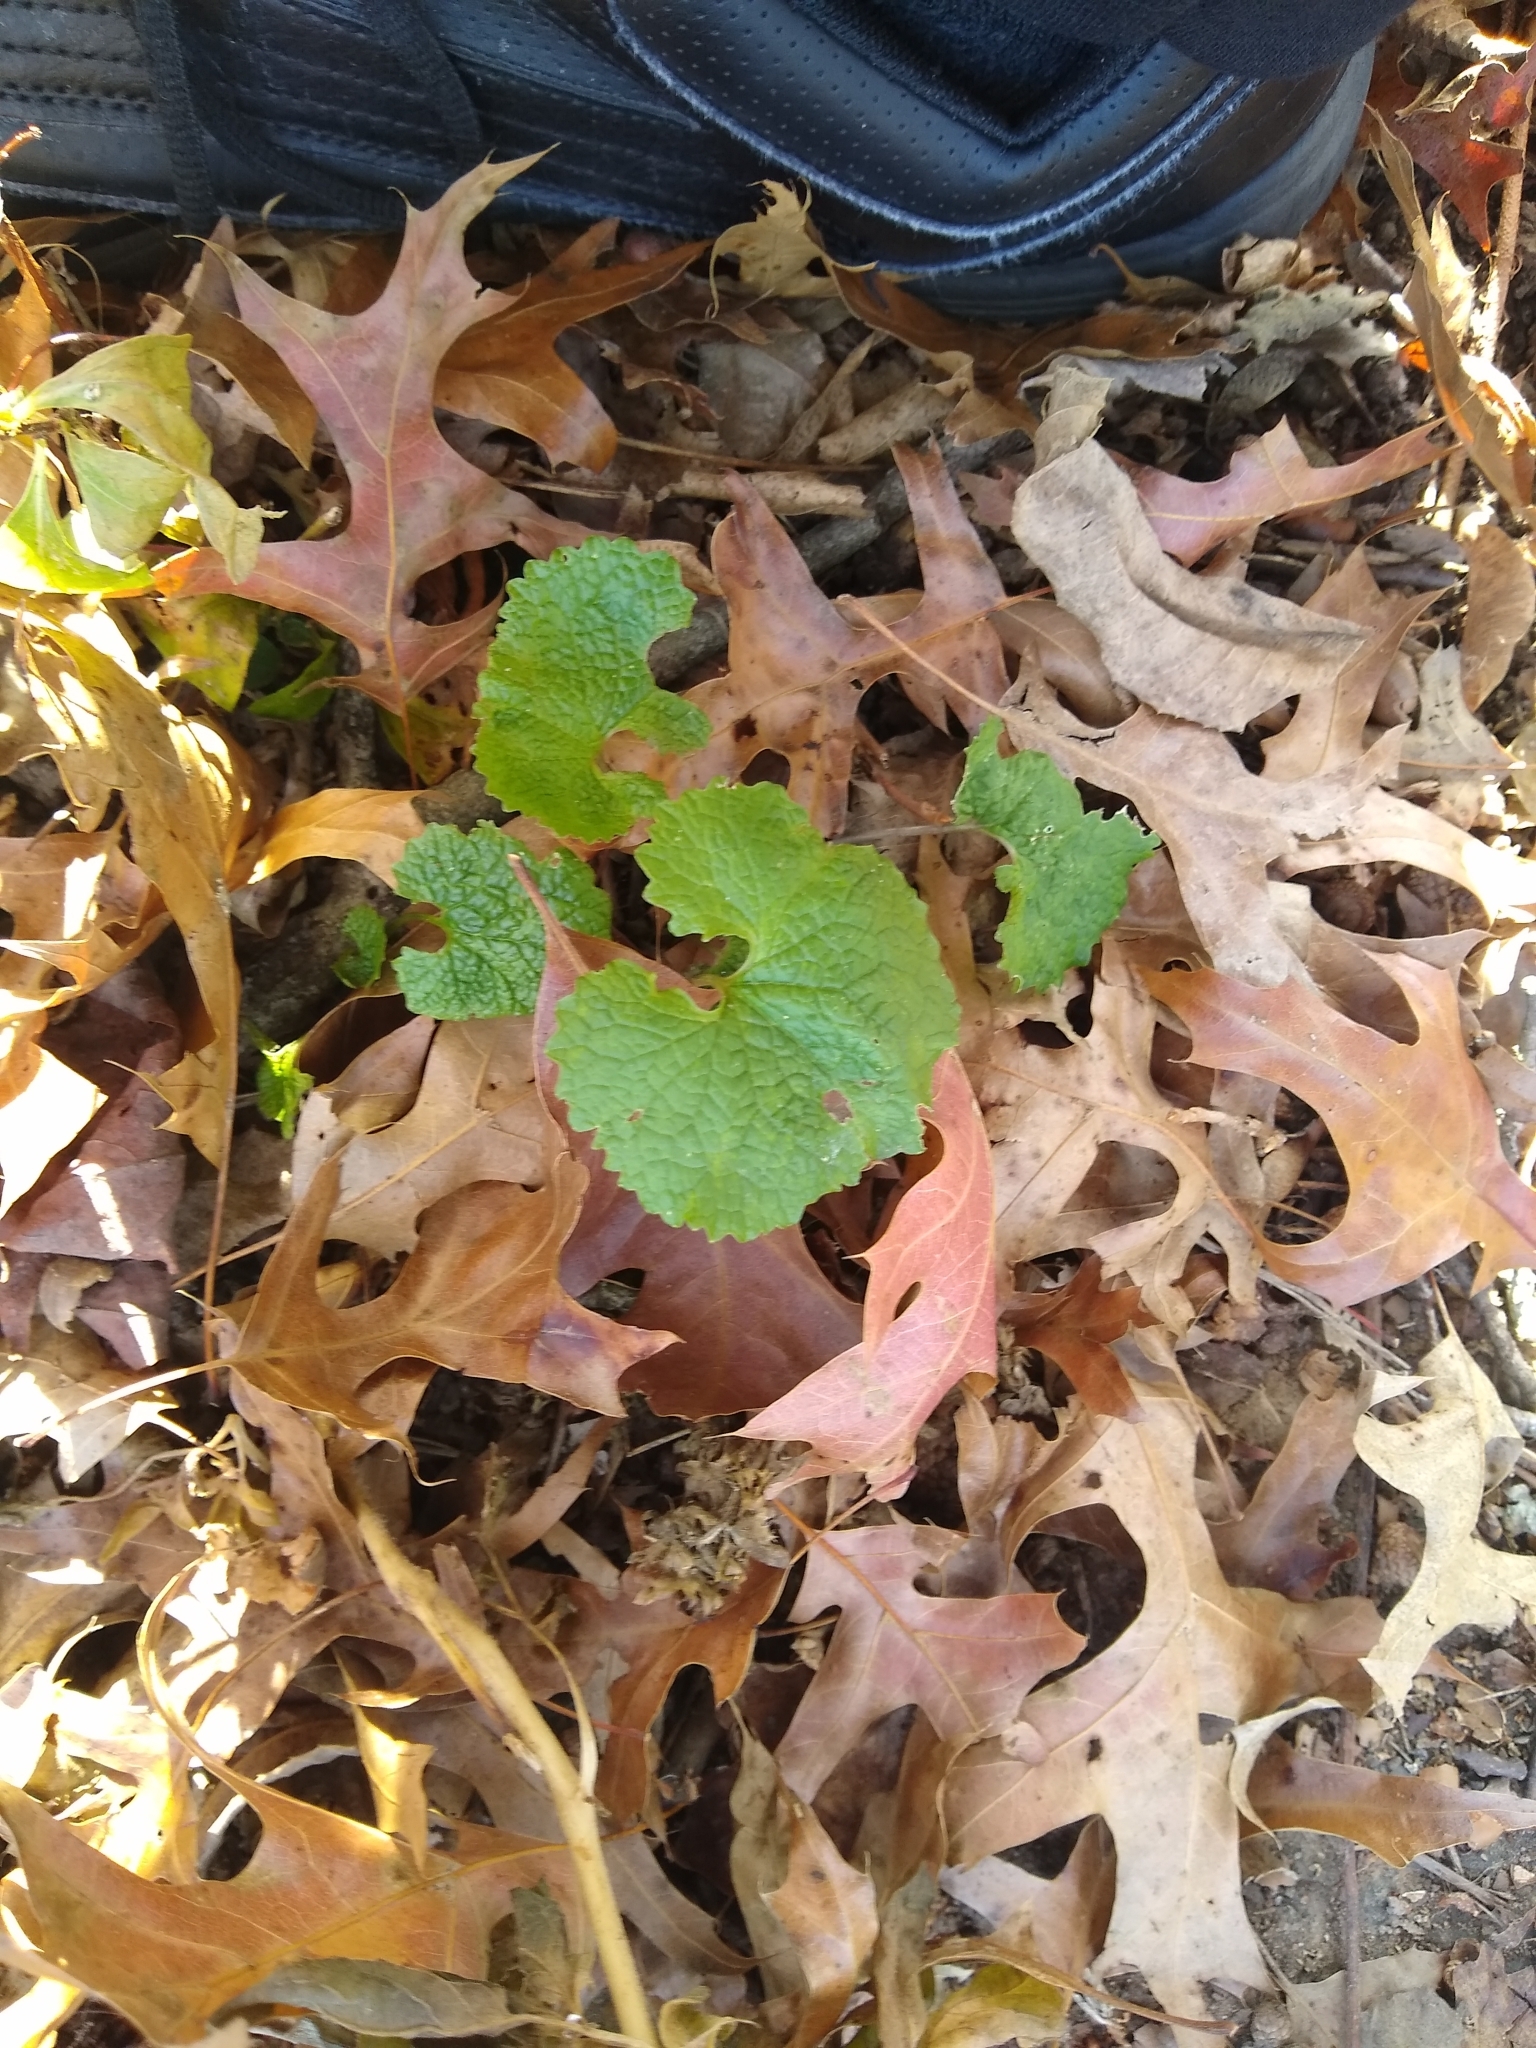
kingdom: Plantae
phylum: Tracheophyta
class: Magnoliopsida
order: Brassicales
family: Brassicaceae
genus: Alliaria
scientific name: Alliaria petiolata
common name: Garlic mustard
